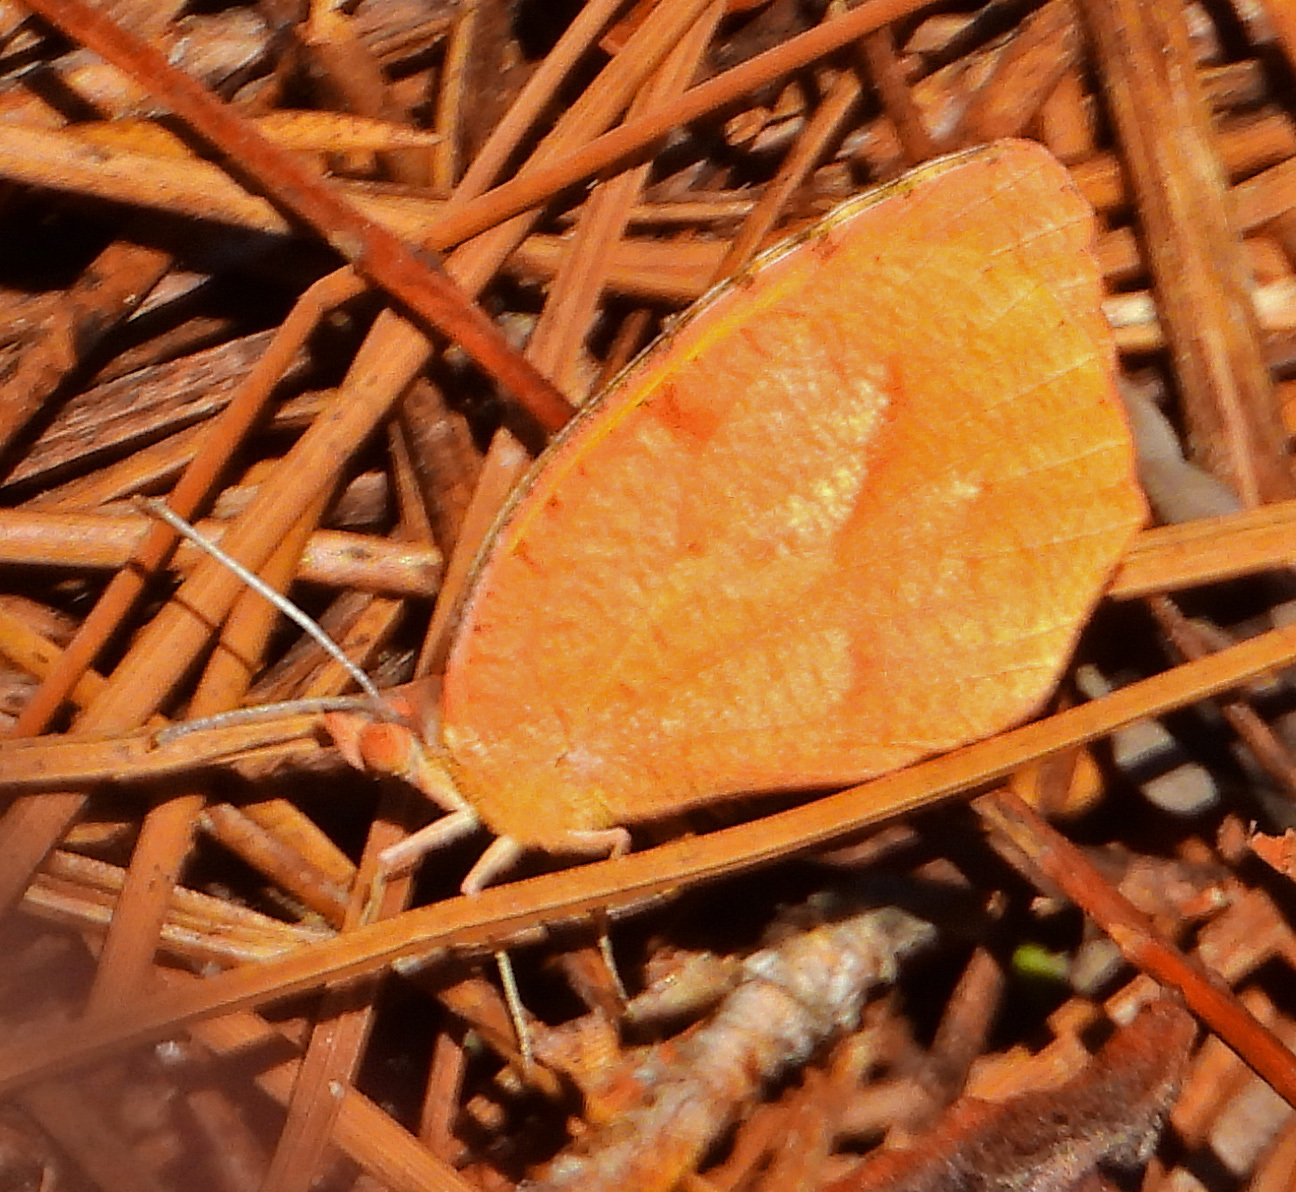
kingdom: Animalia
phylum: Arthropoda
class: Insecta
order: Lepidoptera
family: Pieridae
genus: Abaeis
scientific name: Abaeis nicippe
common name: Sleepy orange
